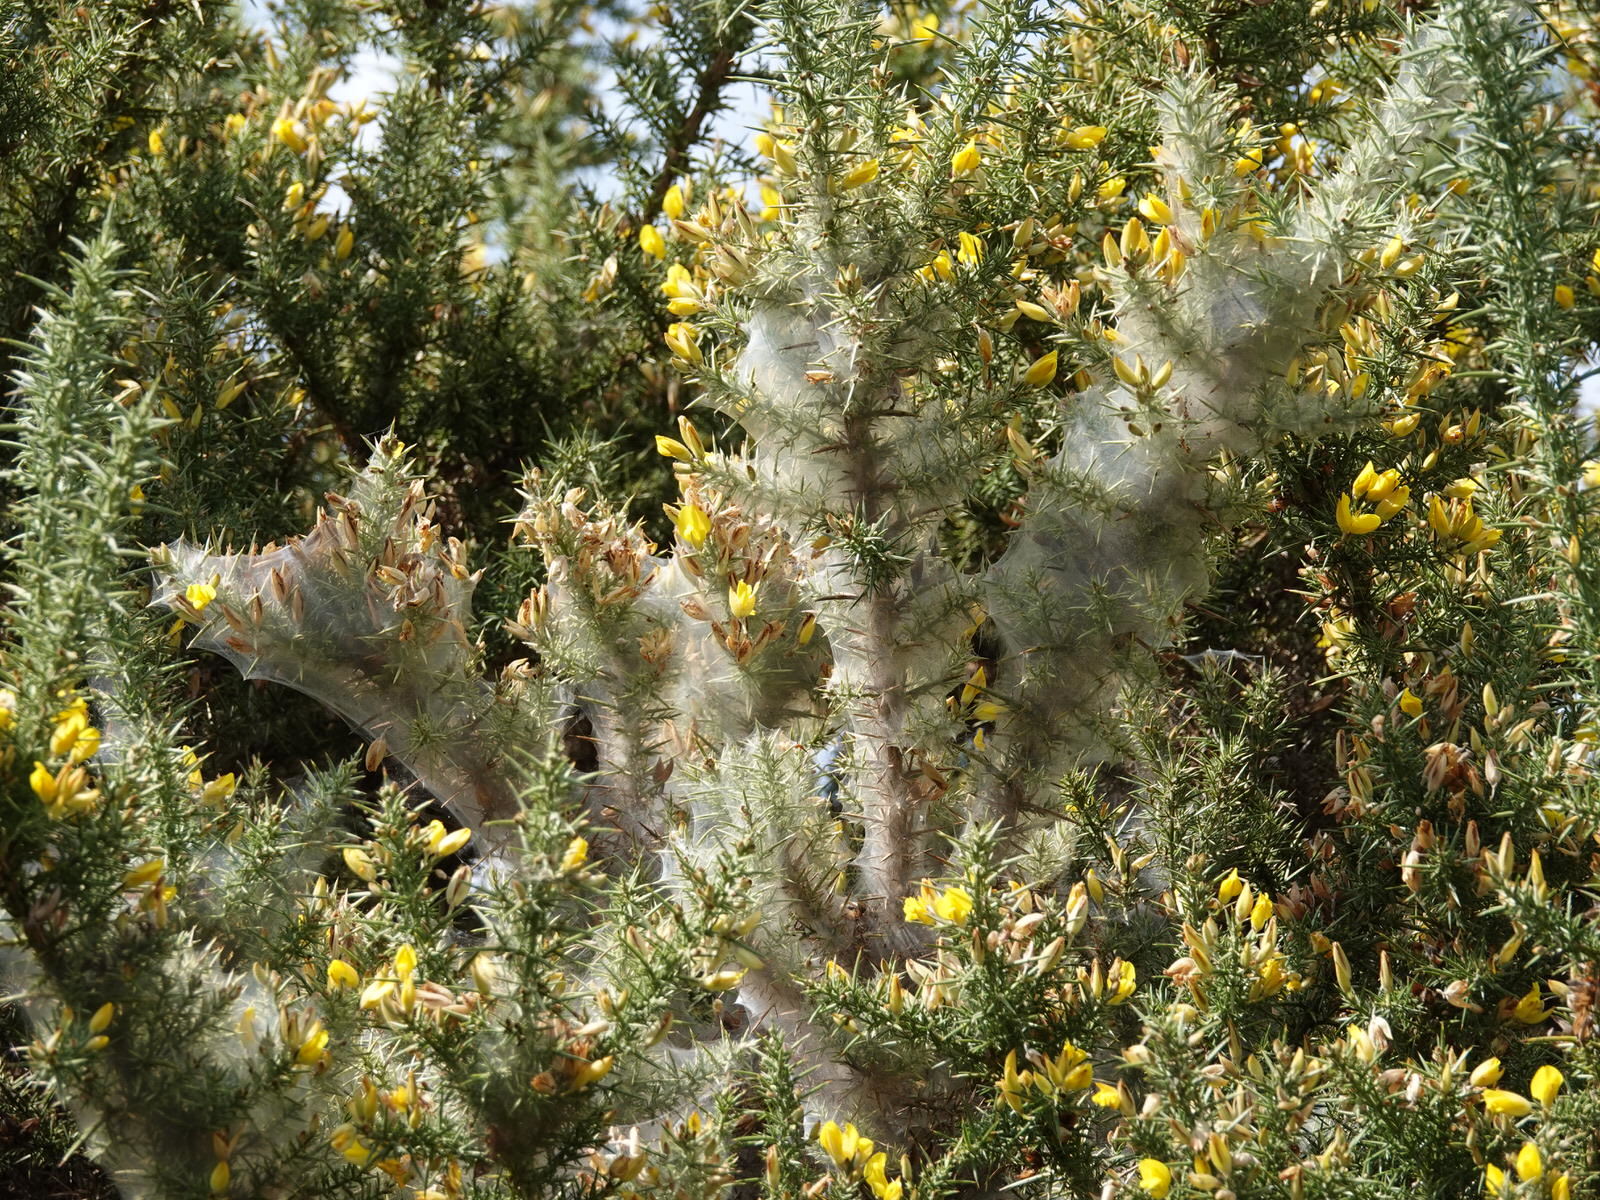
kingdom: Animalia
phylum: Arthropoda
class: Arachnida
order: Trombidiformes
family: Tetranychidae
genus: Tetranychus
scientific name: Tetranychus lintearius
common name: Gorse spider mite
